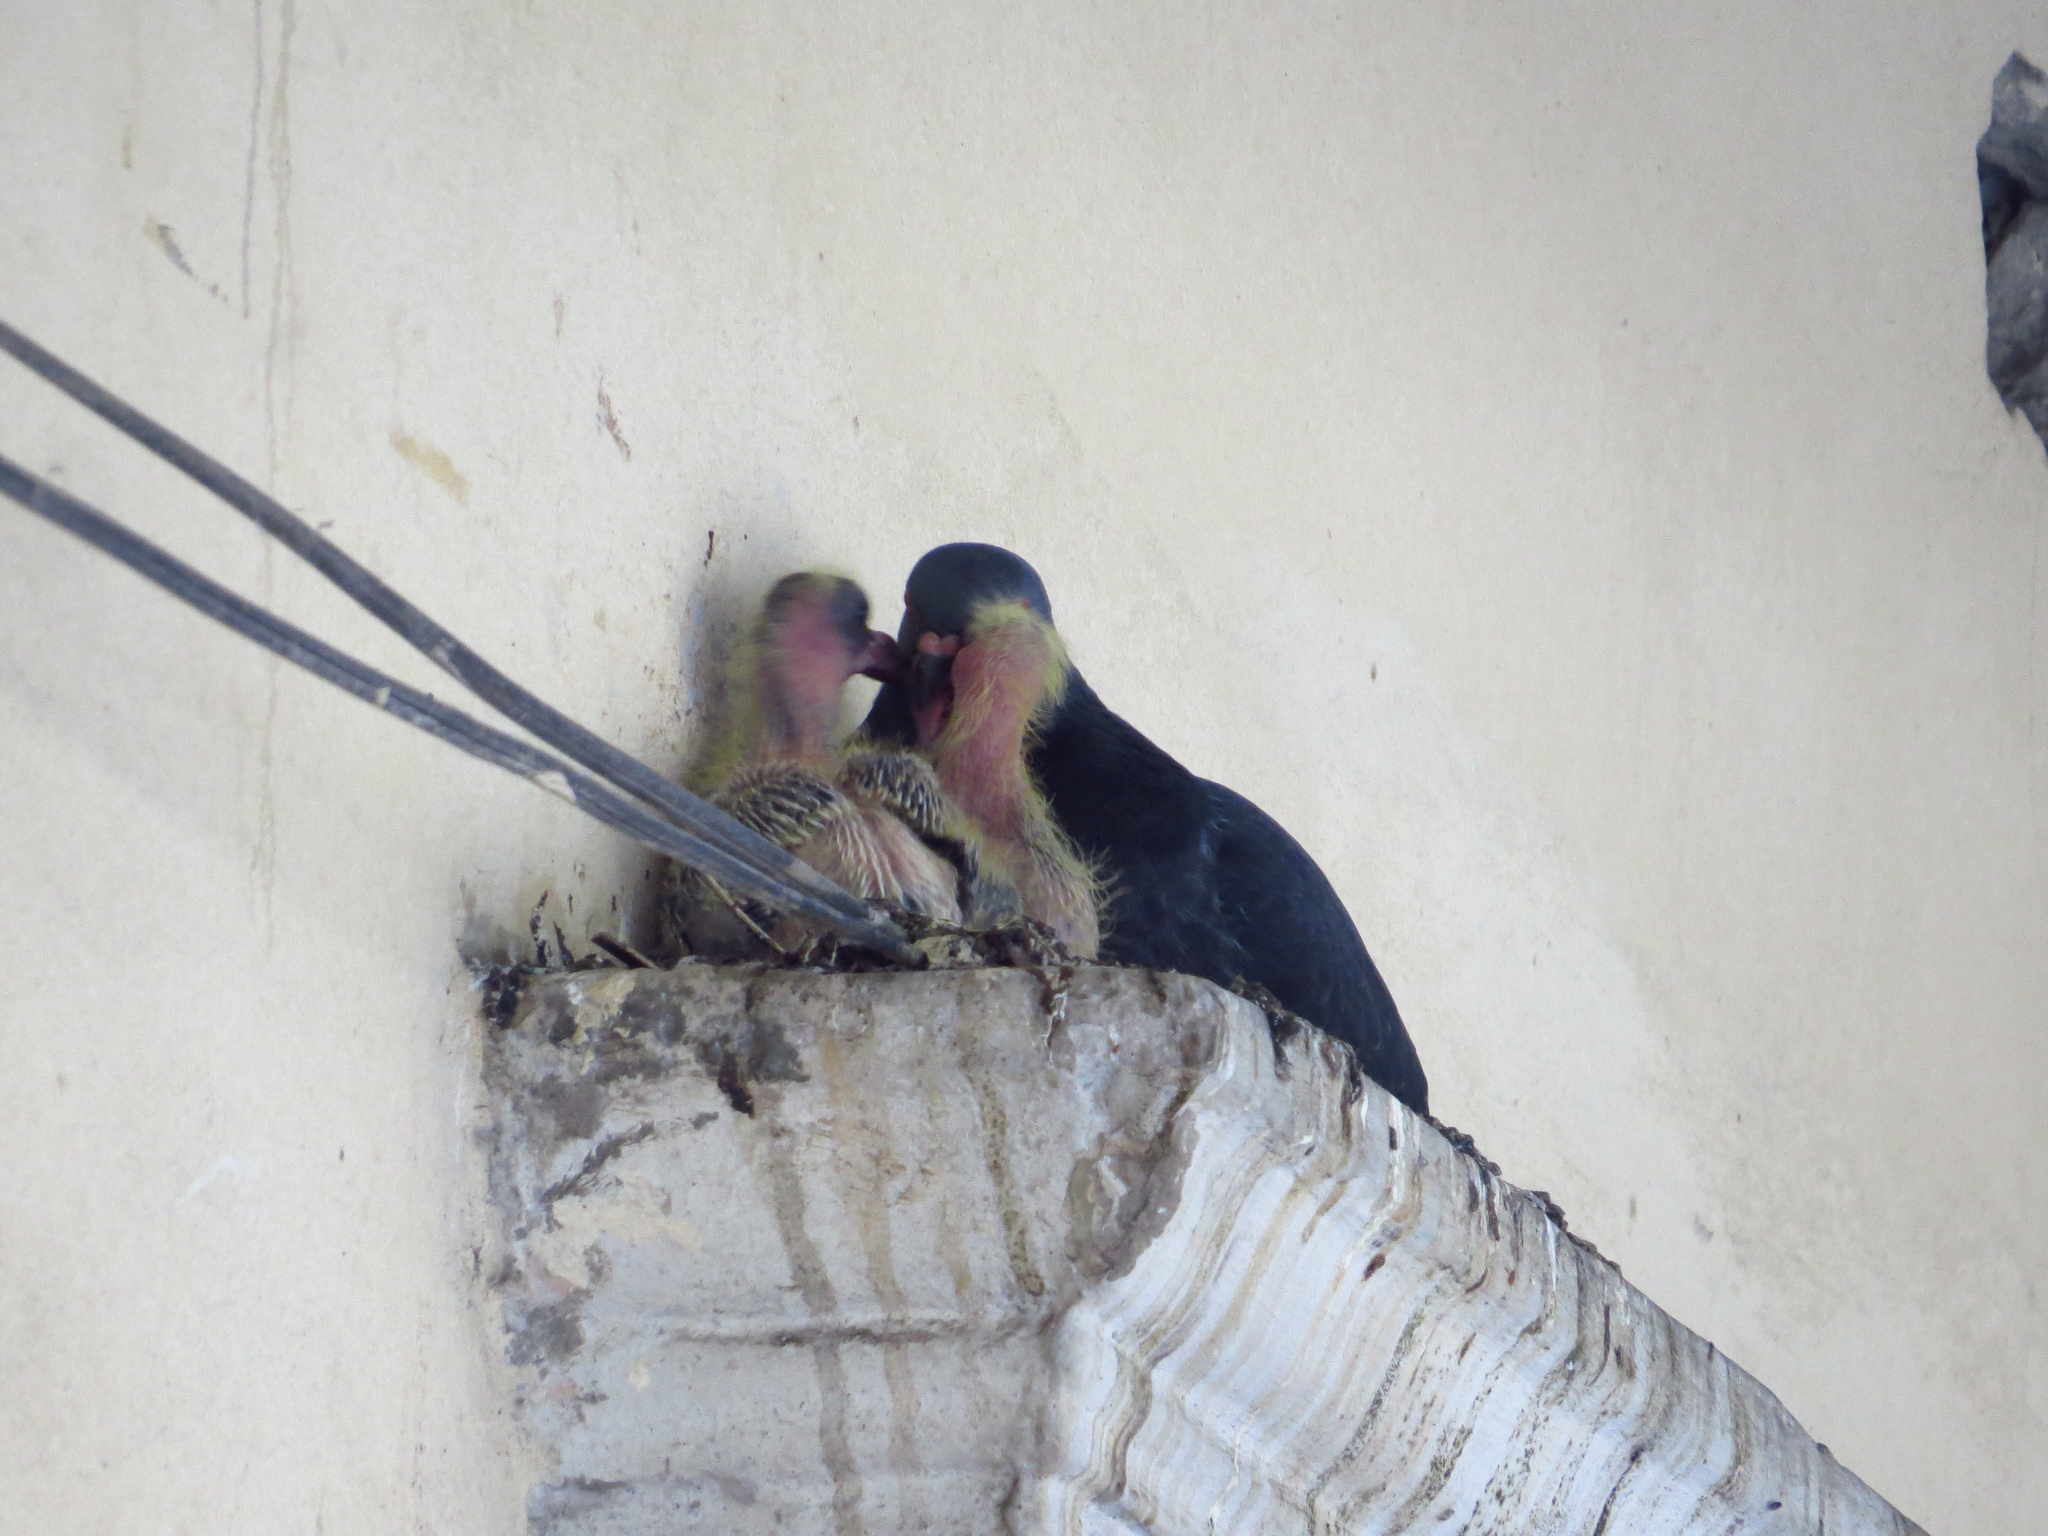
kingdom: Animalia
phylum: Chordata
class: Aves
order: Columbiformes
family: Columbidae
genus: Columba
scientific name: Columba livia
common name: Rock pigeon
